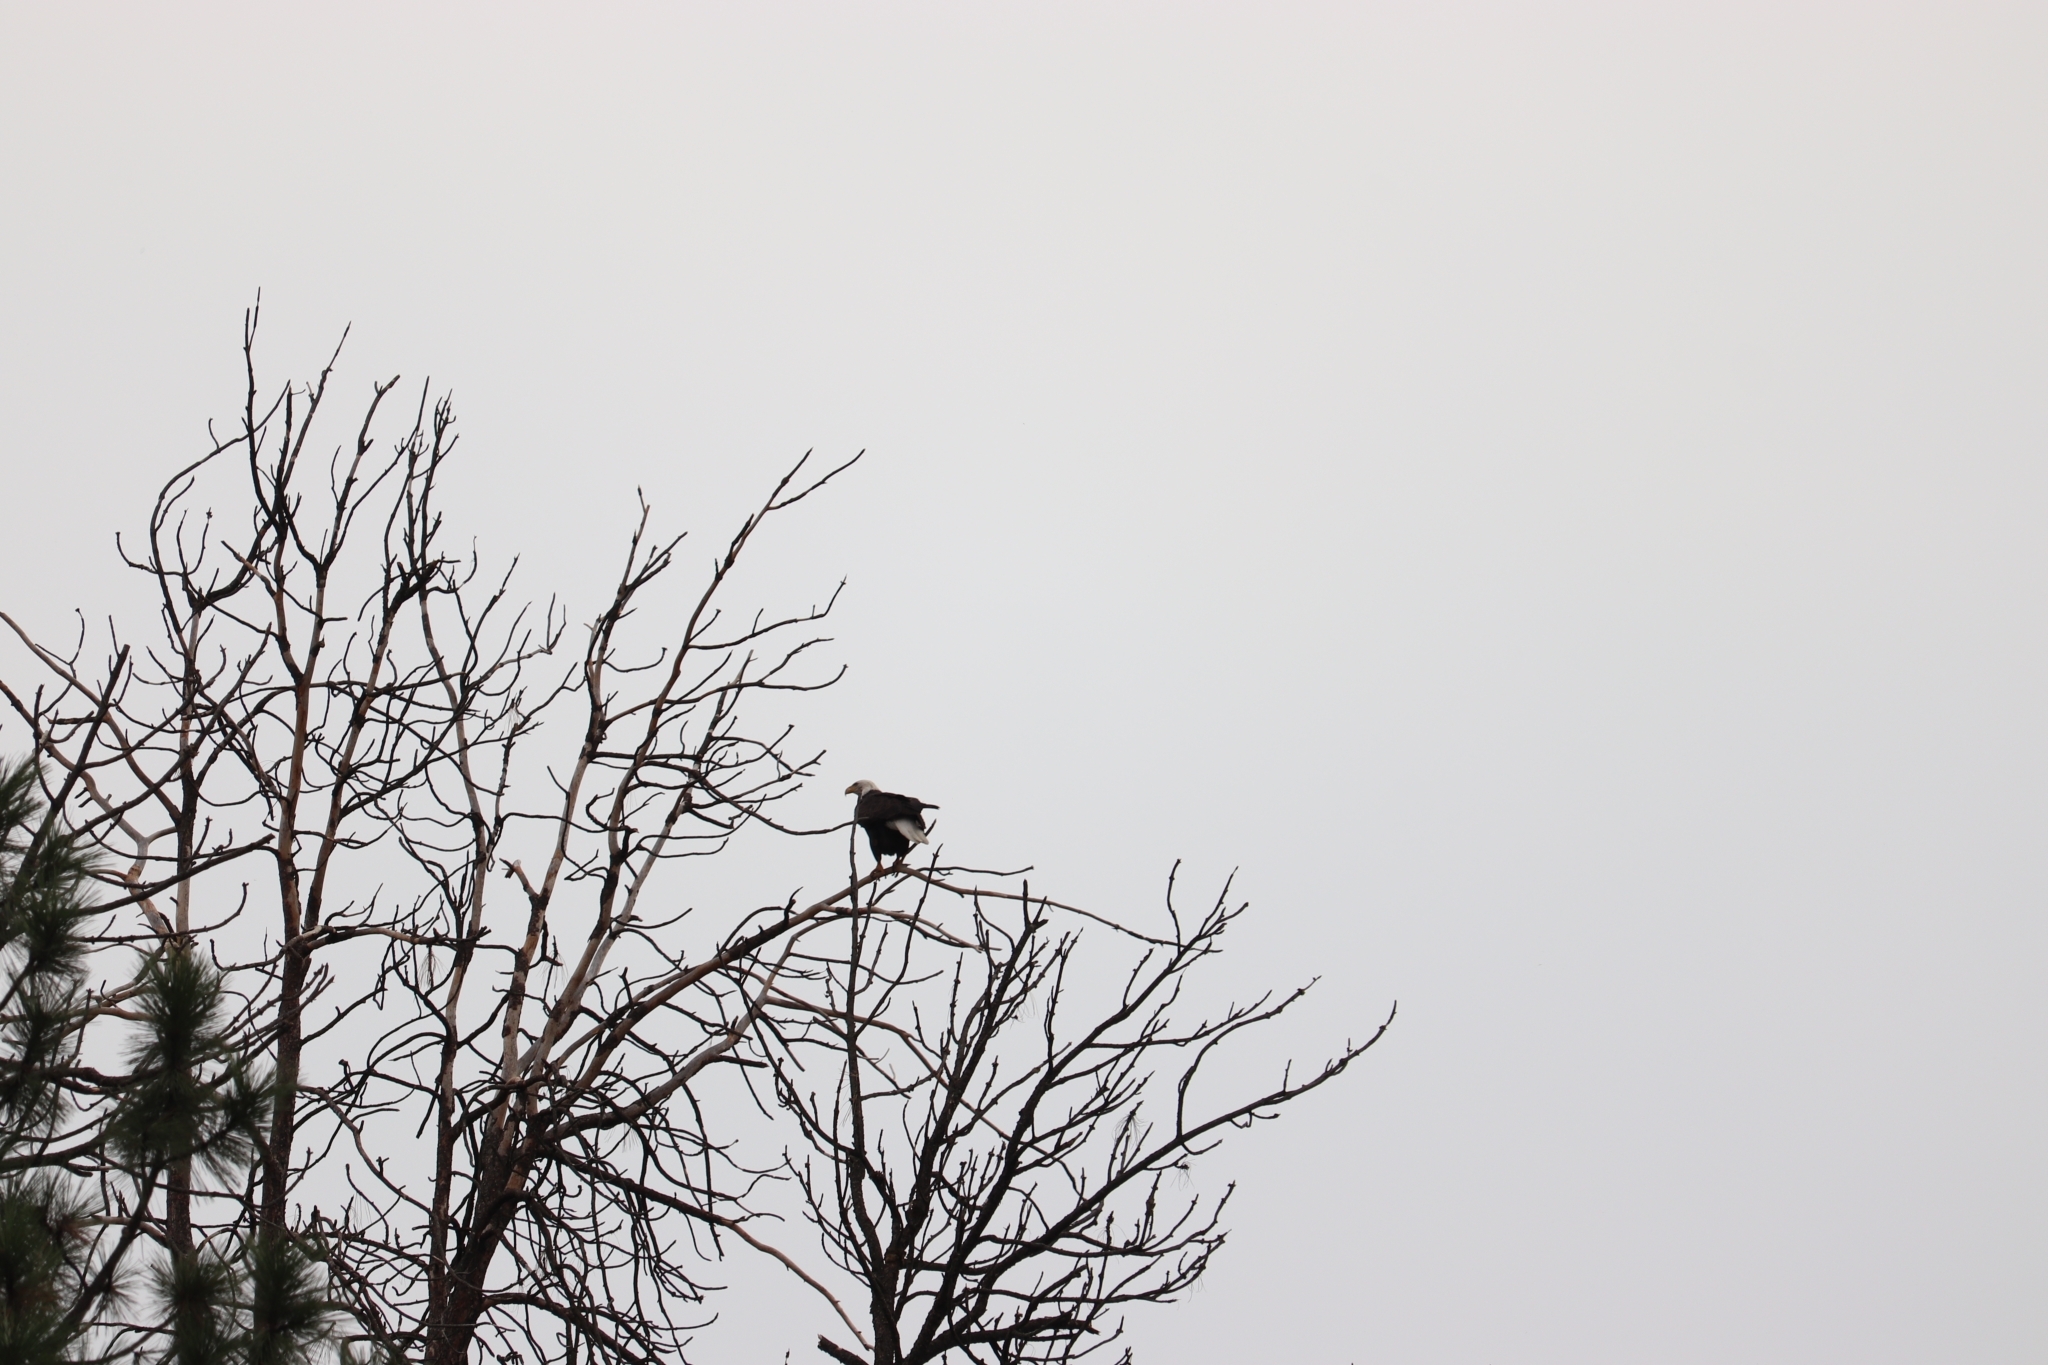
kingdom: Animalia
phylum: Chordata
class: Aves
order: Accipitriformes
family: Accipitridae
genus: Haliaeetus
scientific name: Haliaeetus leucocephalus
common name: Bald eagle
